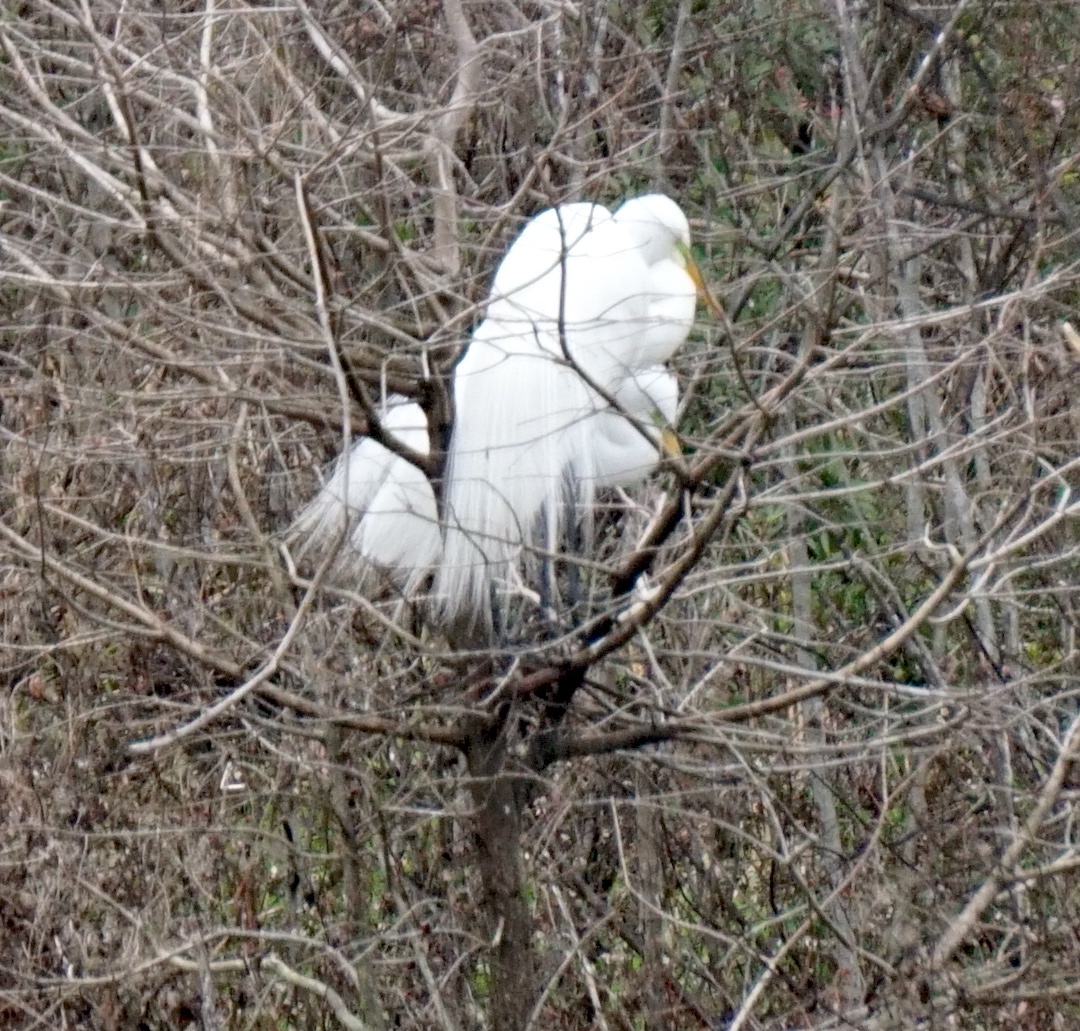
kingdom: Animalia
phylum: Chordata
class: Aves
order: Pelecaniformes
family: Ardeidae
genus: Ardea
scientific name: Ardea alba
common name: Great egret
